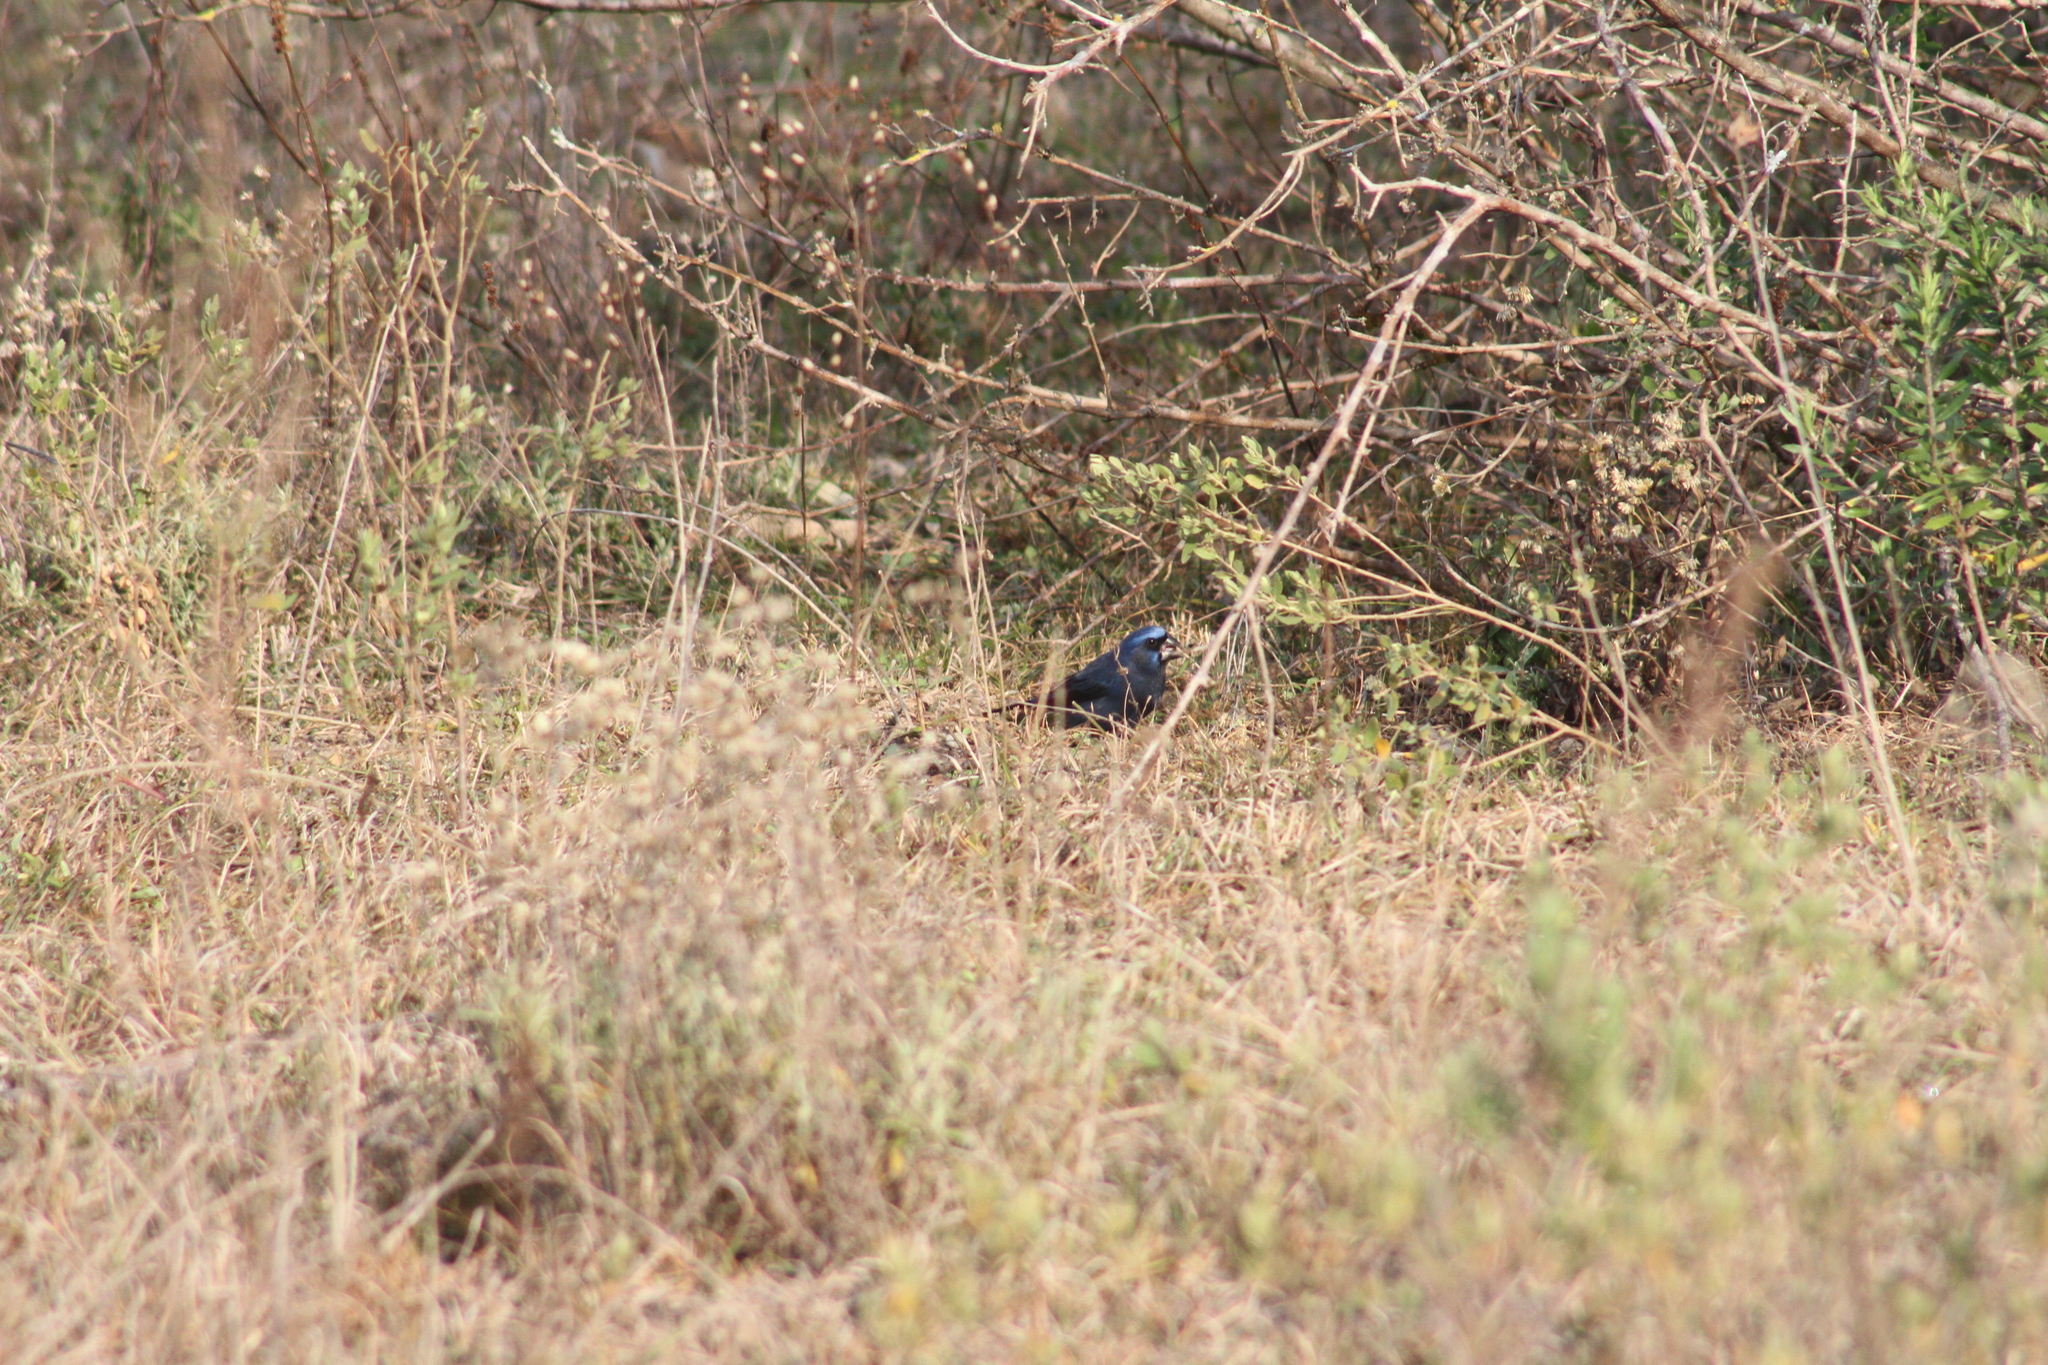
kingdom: Animalia
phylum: Chordata
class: Aves
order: Passeriformes
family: Cardinalidae
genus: Cyanoloxia
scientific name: Cyanoloxia brissonii
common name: Ultramarine grosbeak
